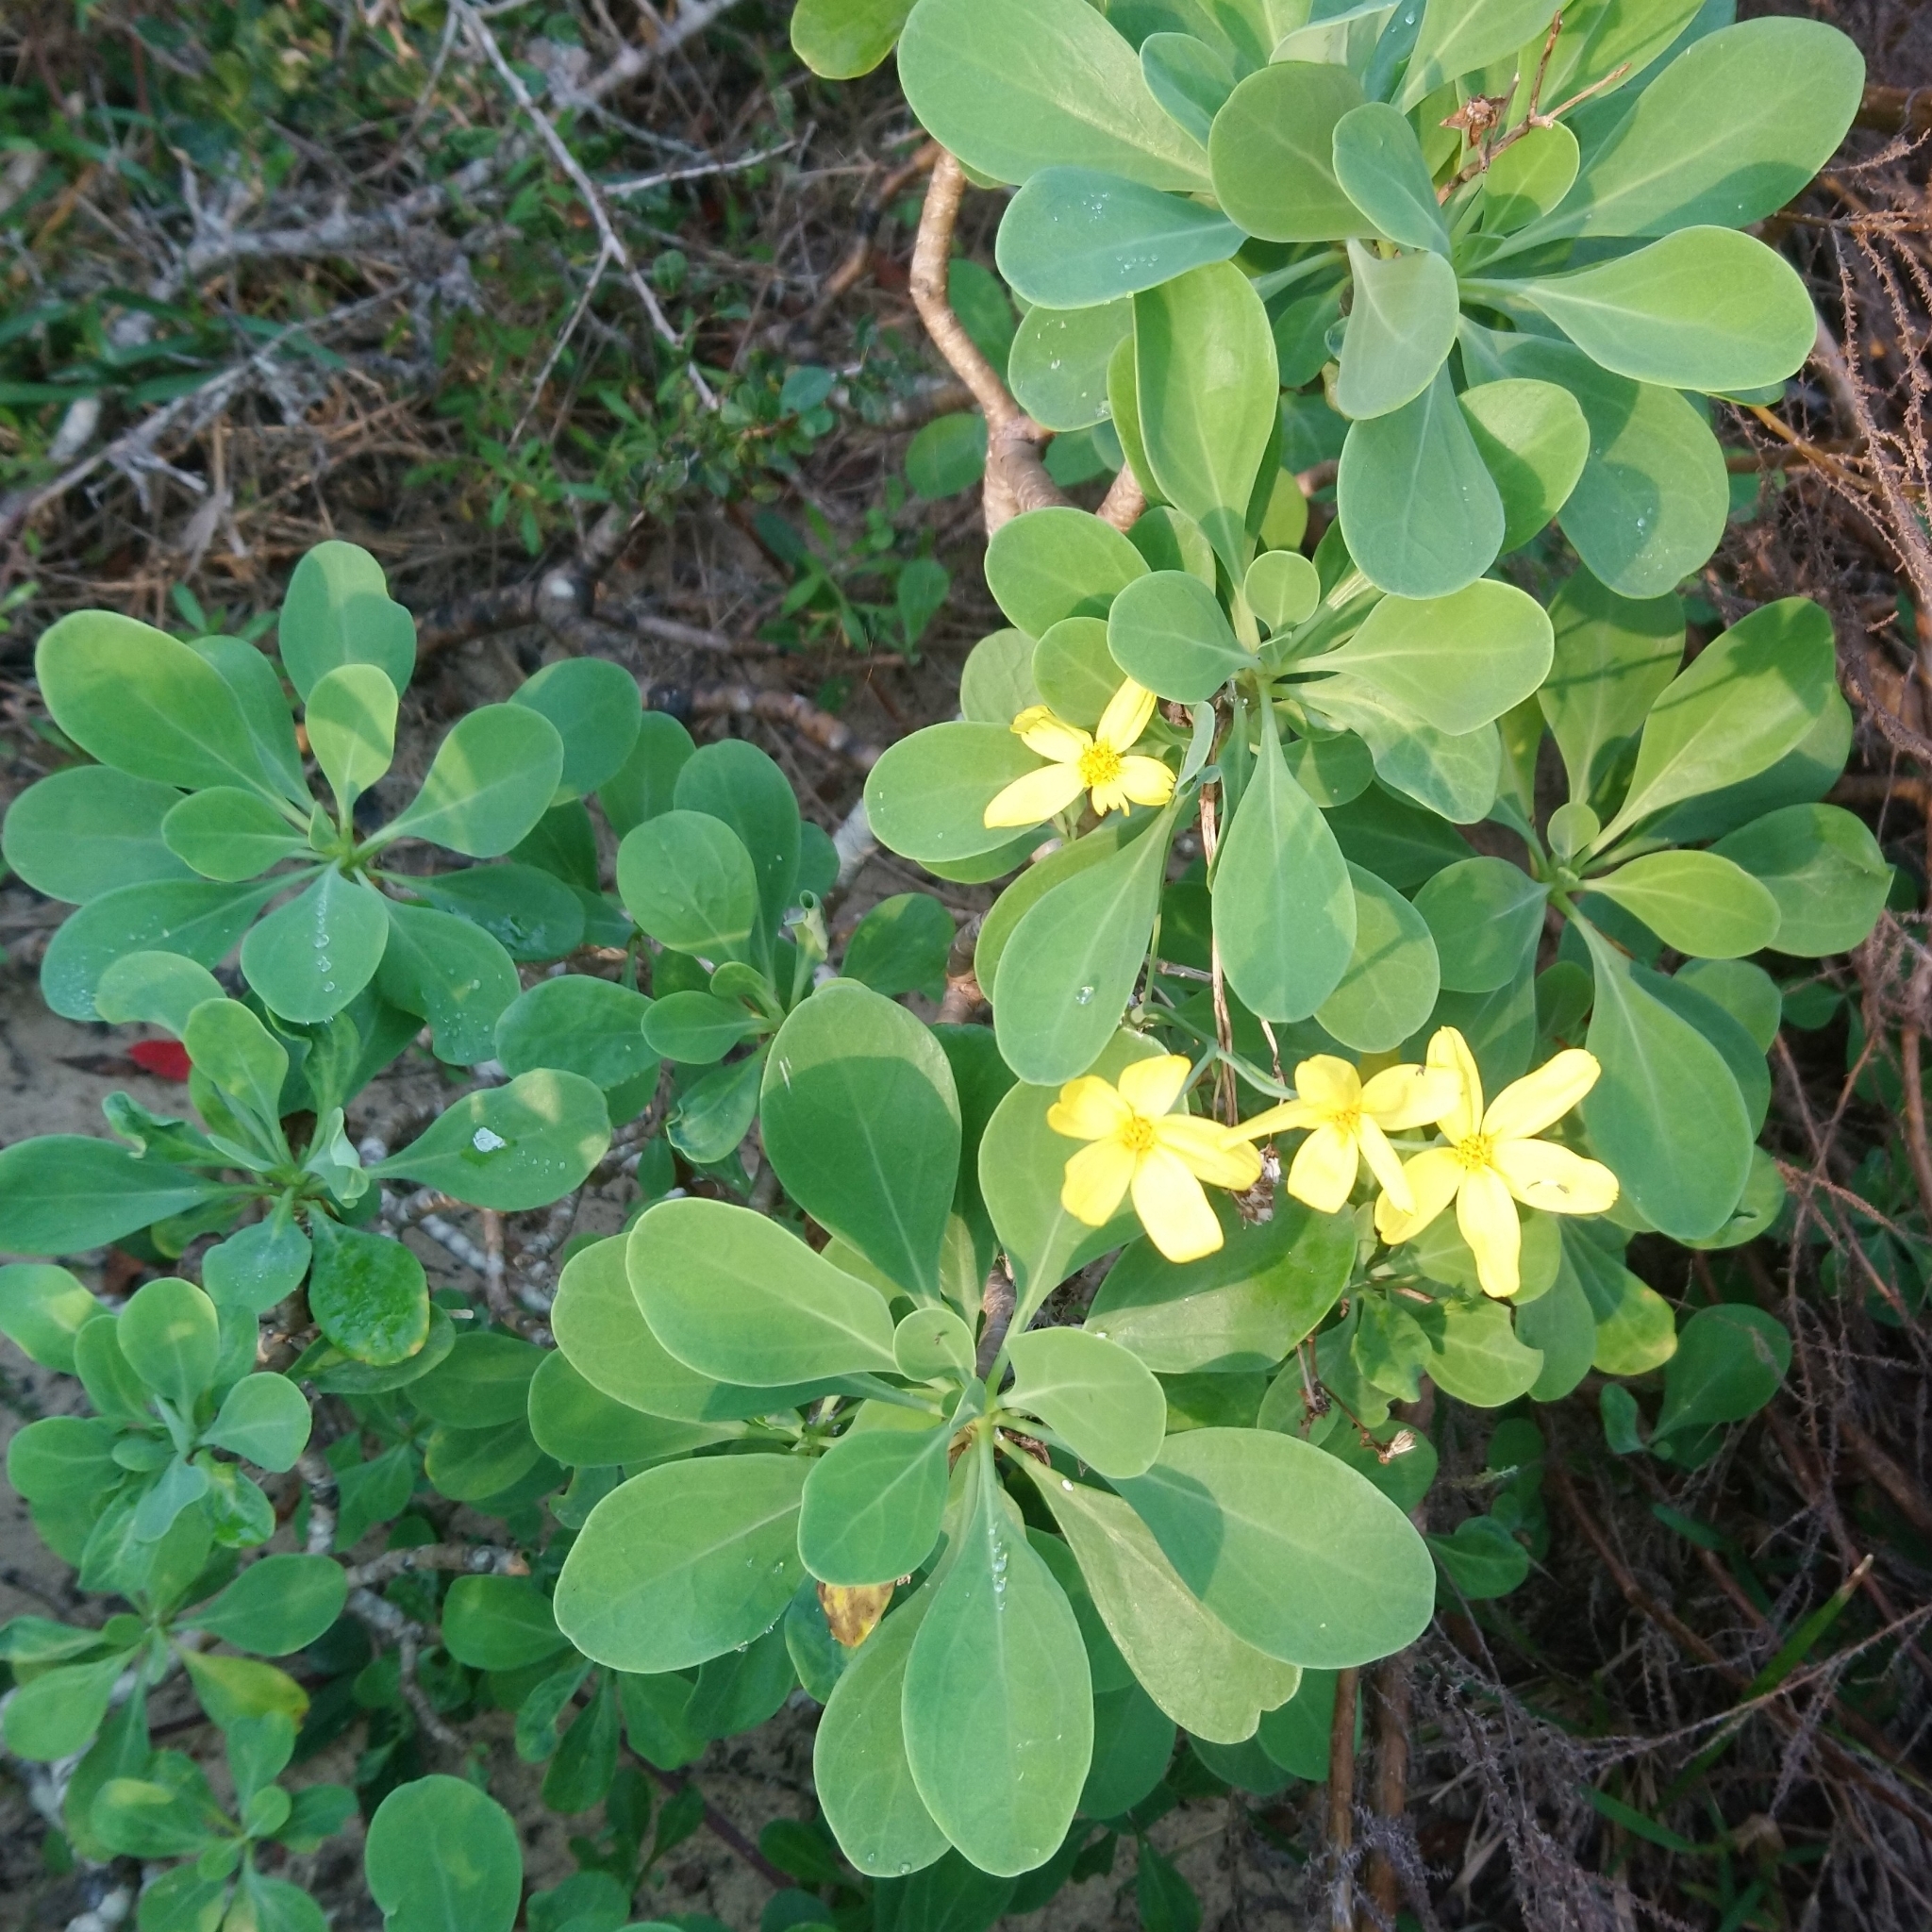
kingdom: Plantae
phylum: Tracheophyta
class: Magnoliopsida
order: Asterales
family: Asteraceae
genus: Othonna
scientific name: Othonna triplinervia
